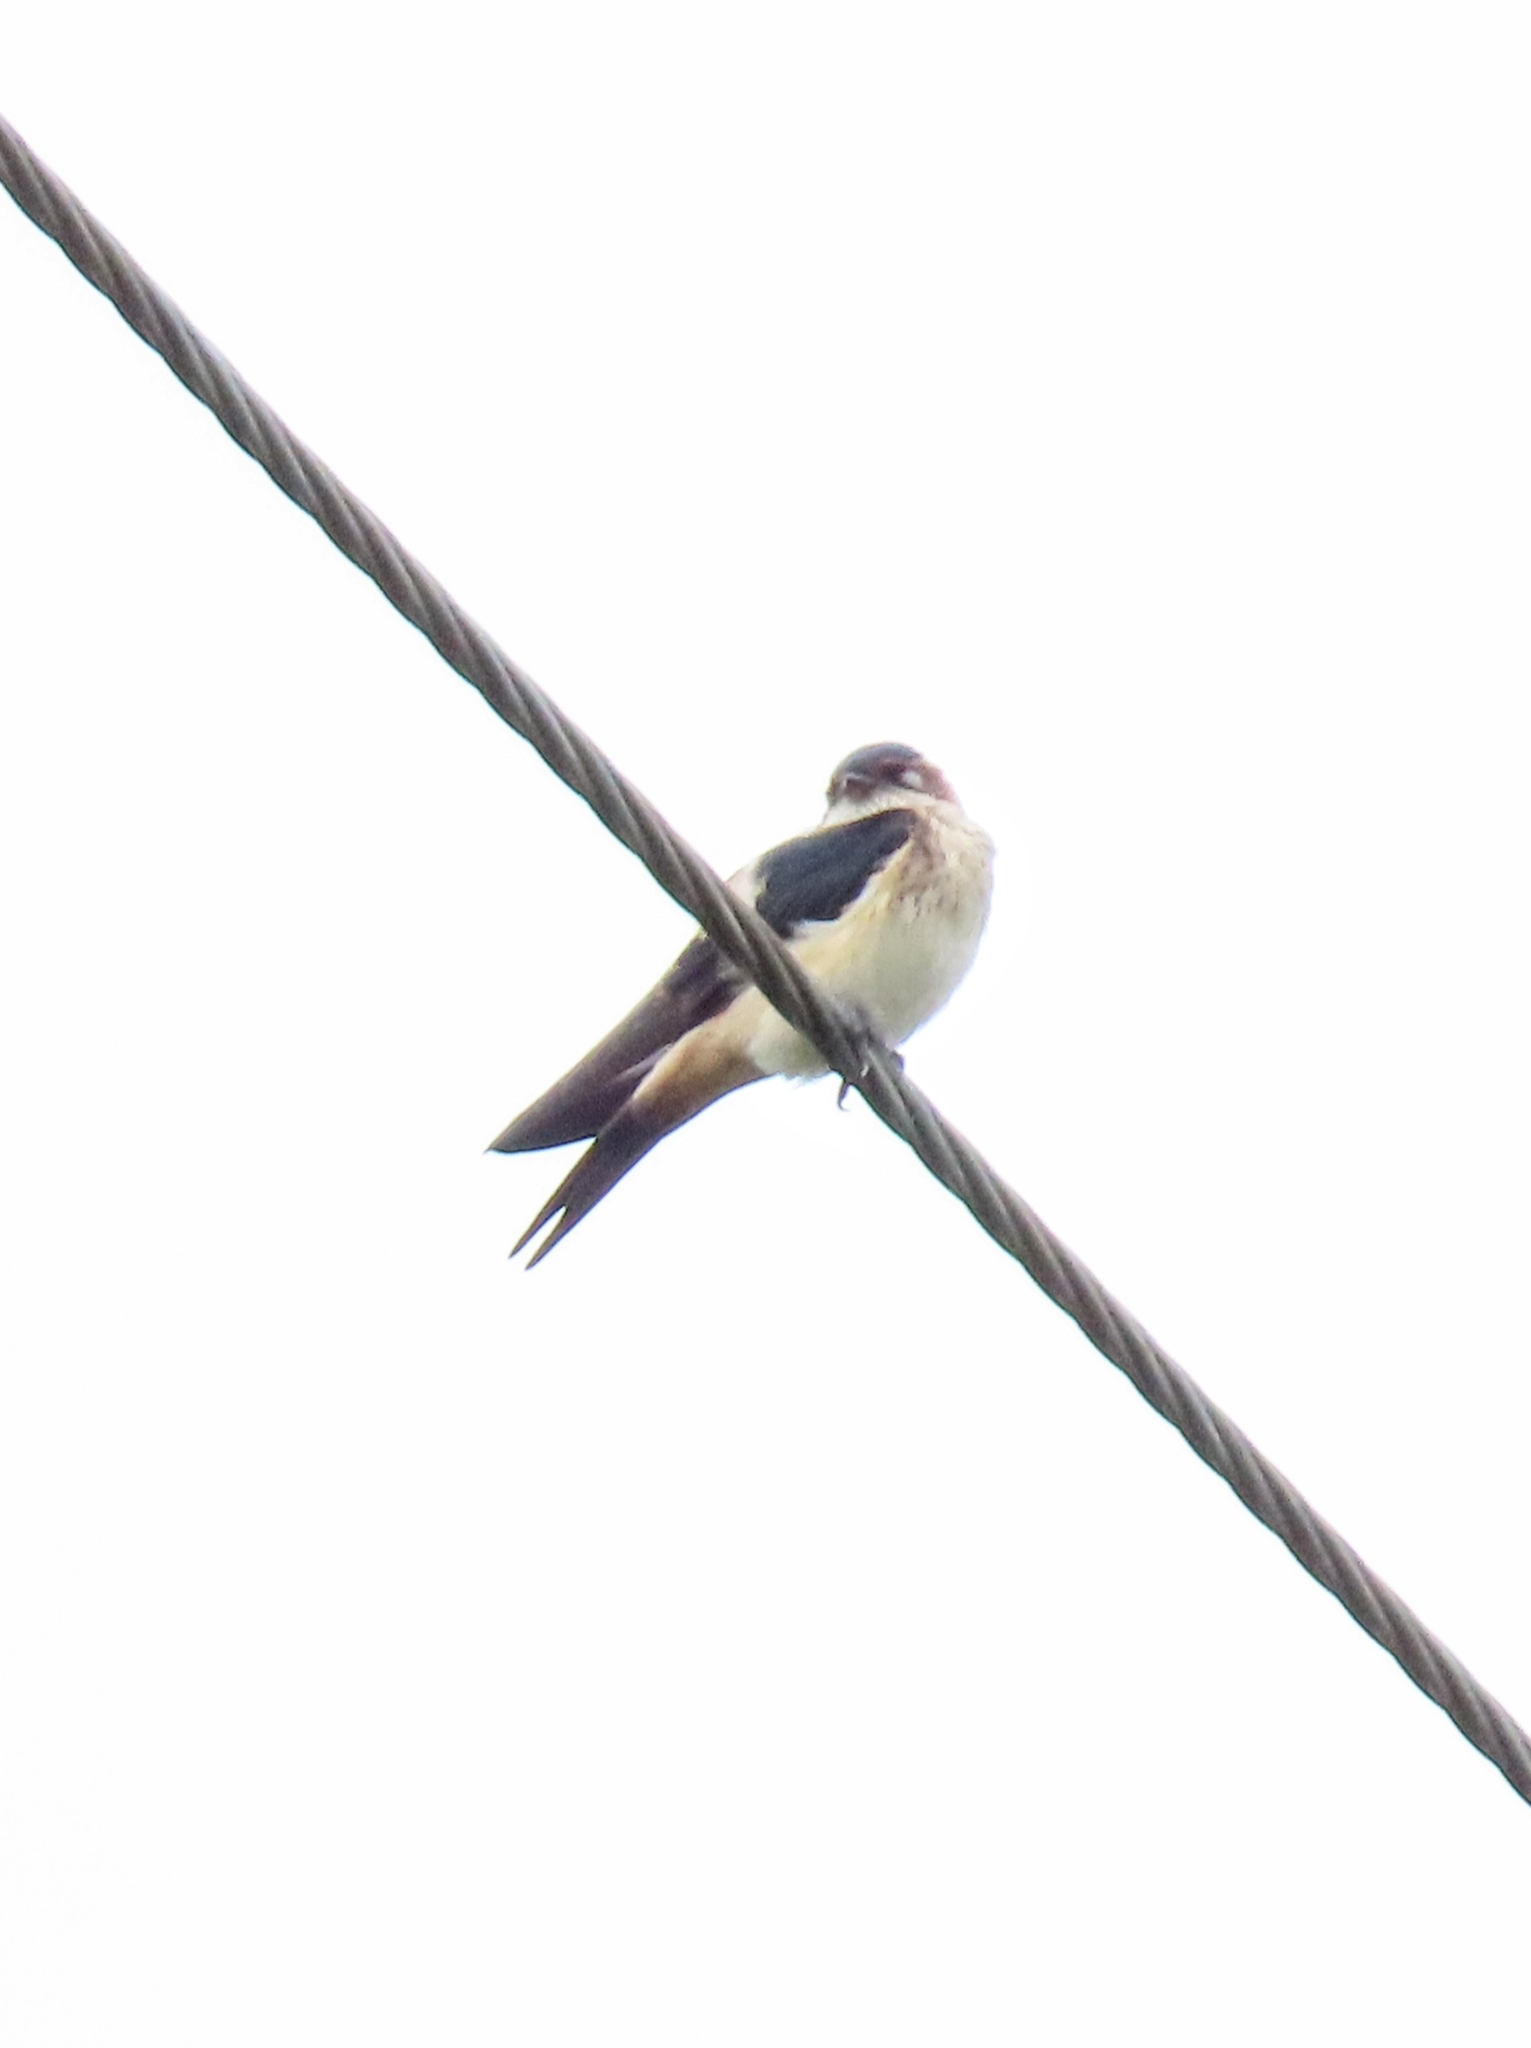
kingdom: Animalia
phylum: Chordata
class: Aves
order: Passeriformes
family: Hirundinidae
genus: Cecropis
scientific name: Cecropis daurica
